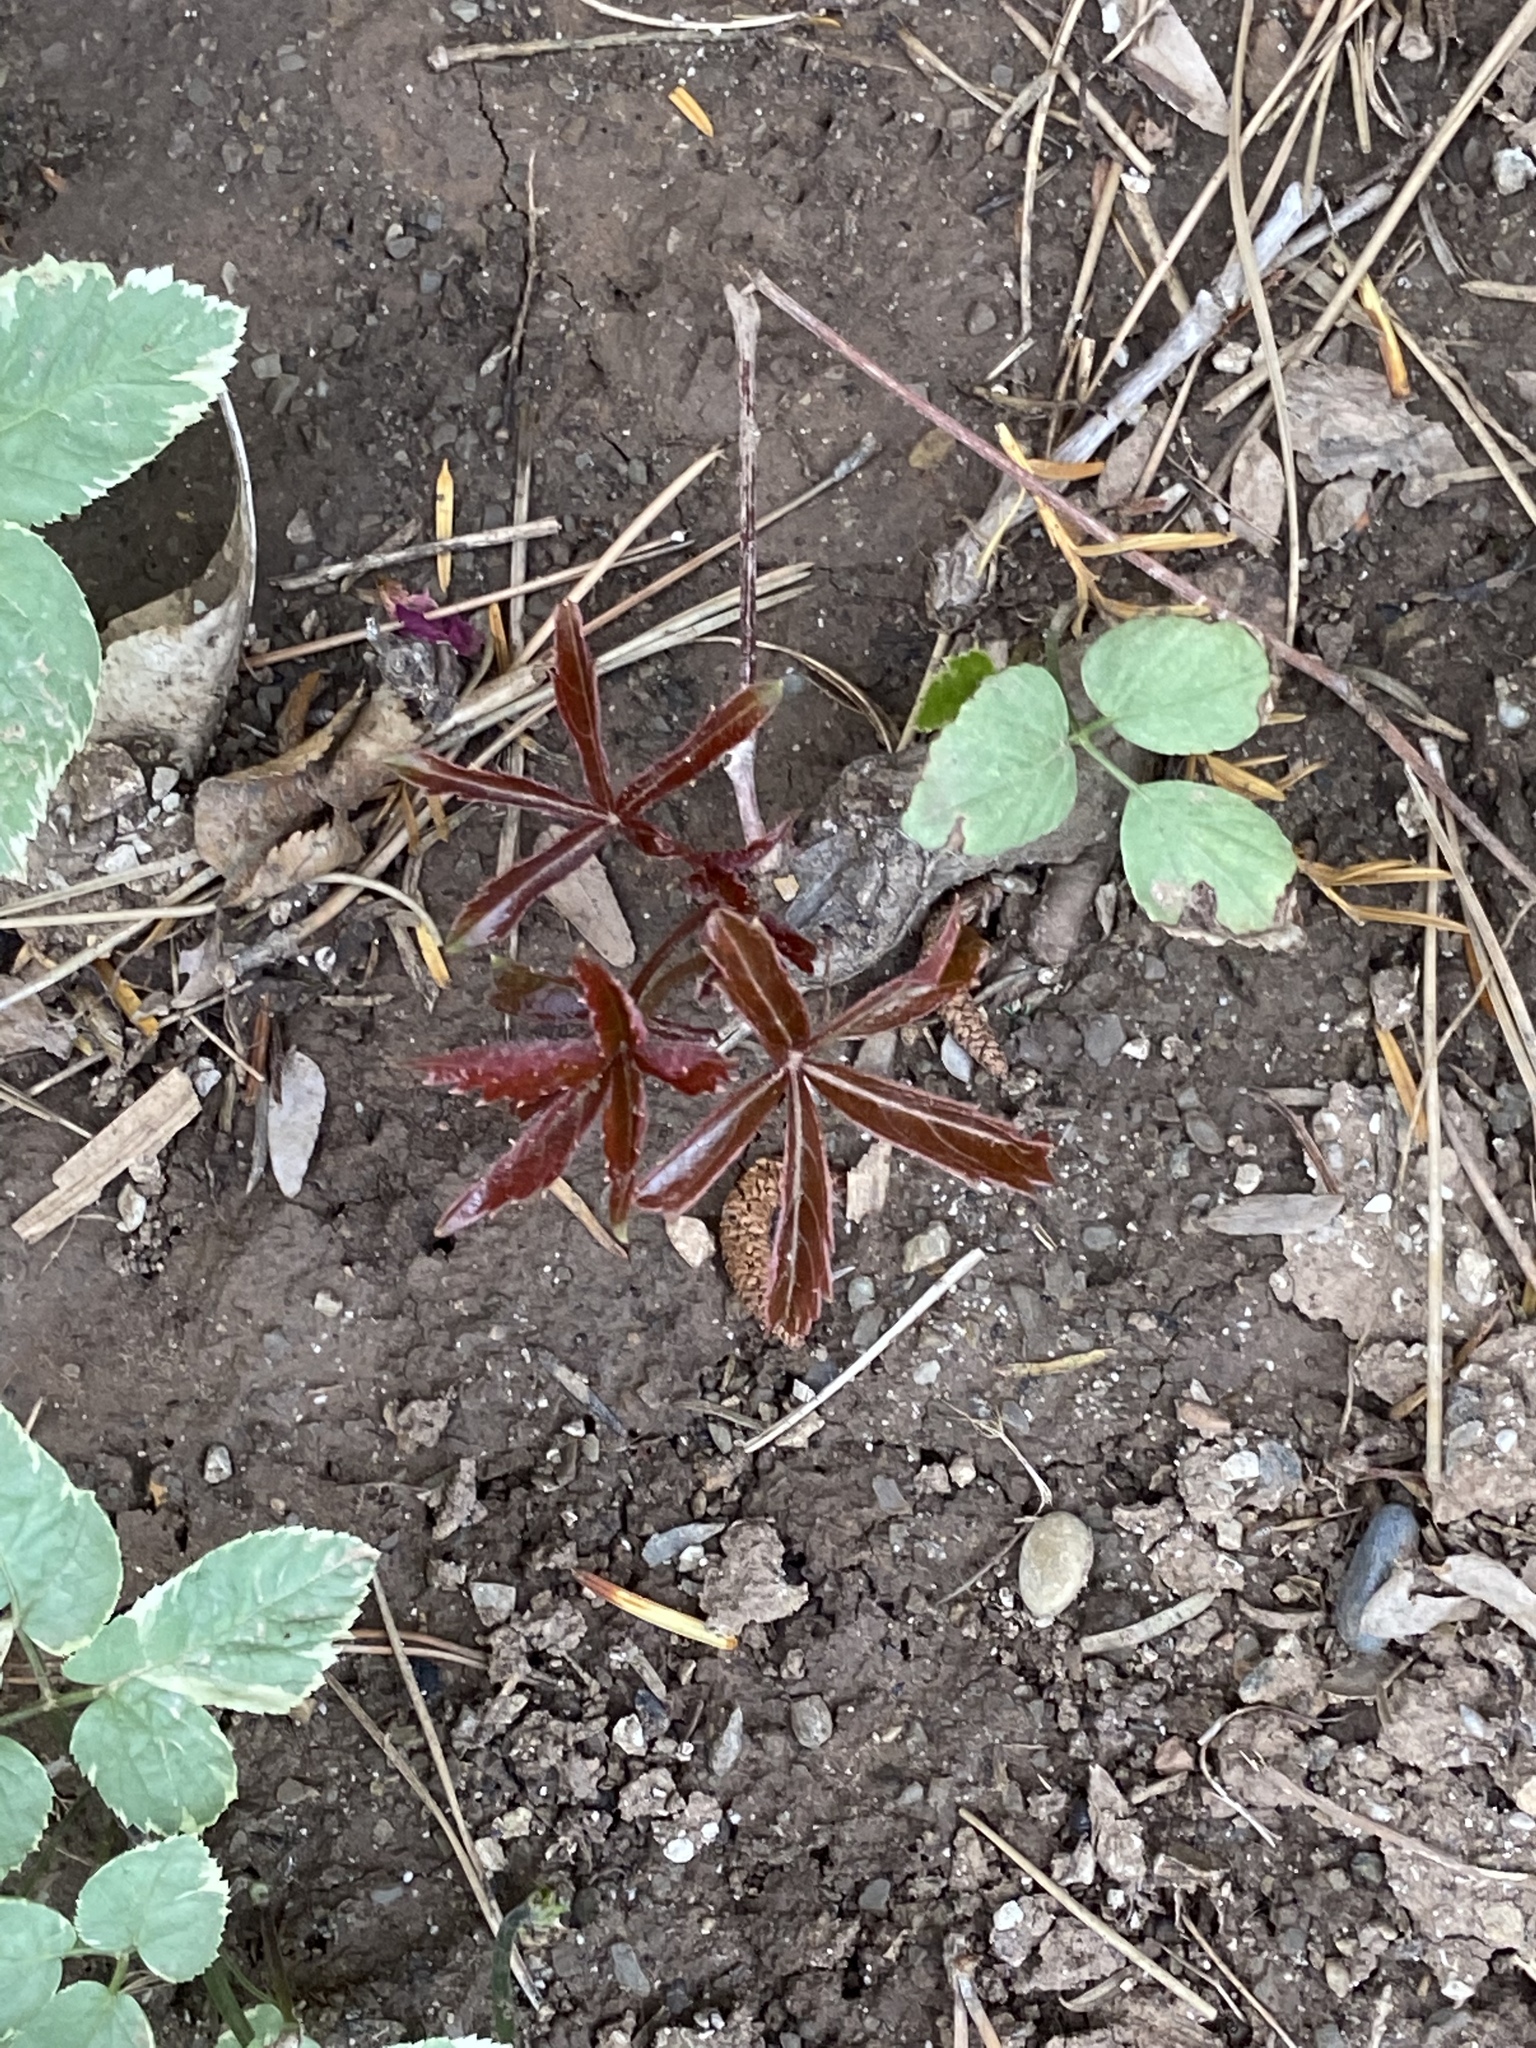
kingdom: Plantae
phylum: Tracheophyta
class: Magnoliopsida
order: Vitales
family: Vitaceae
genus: Parthenocissus
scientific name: Parthenocissus quinquefolia
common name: Virginia-creeper
